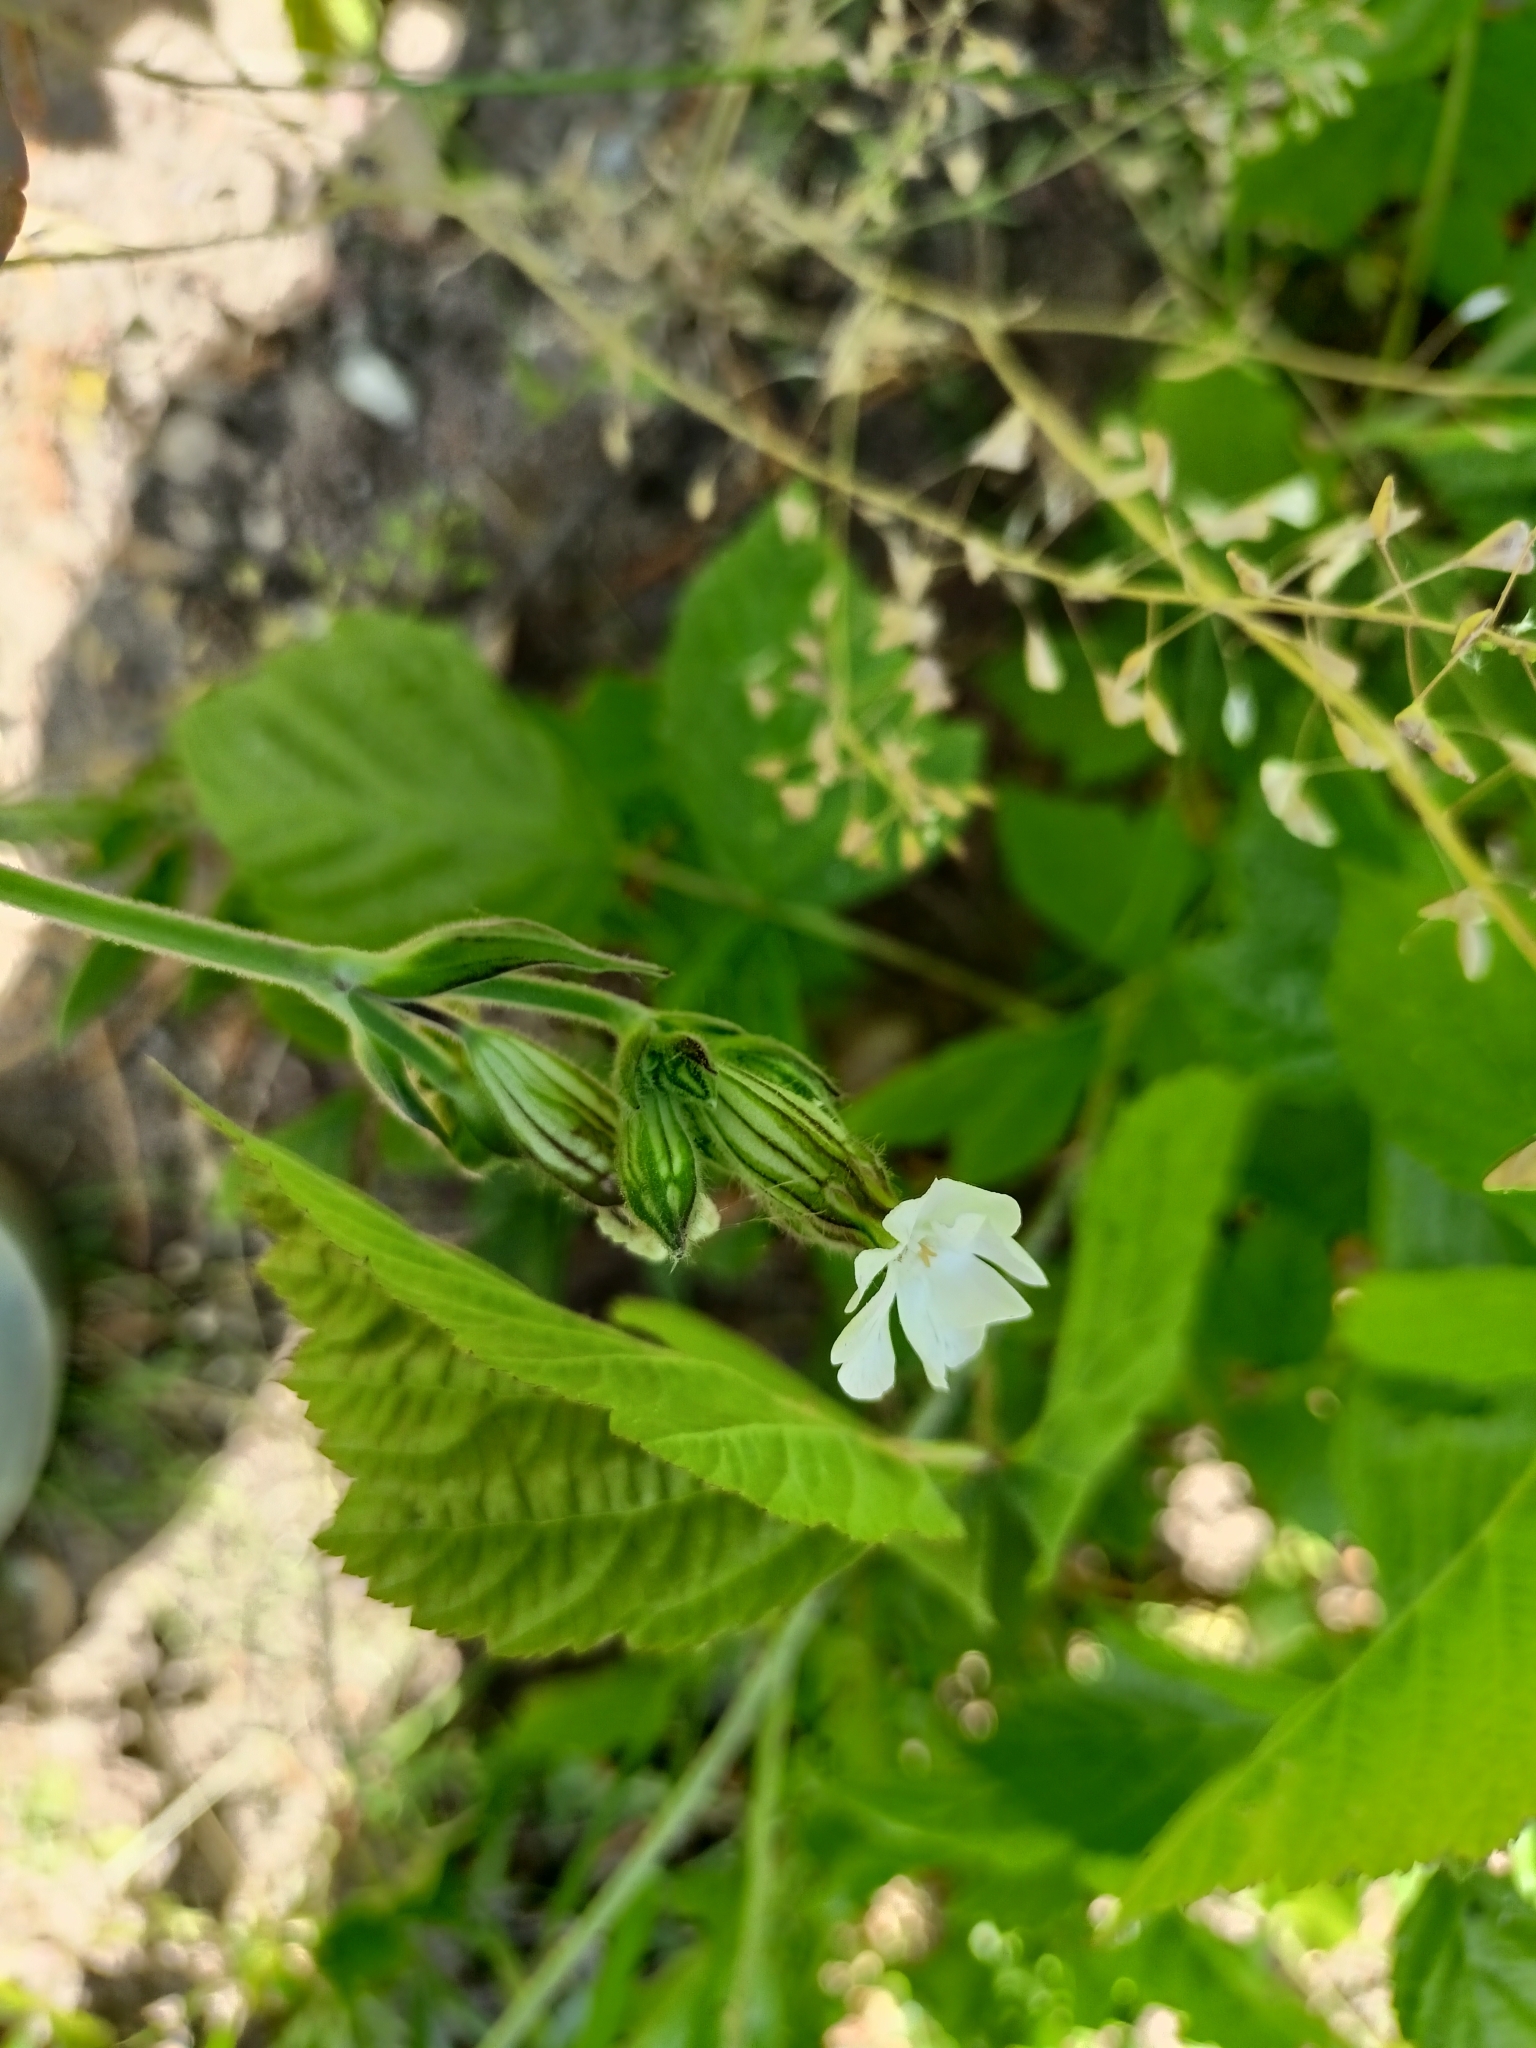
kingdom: Plantae
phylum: Tracheophyta
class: Magnoliopsida
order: Caryophyllales
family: Caryophyllaceae
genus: Silene
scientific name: Silene latifolia
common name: White campion
